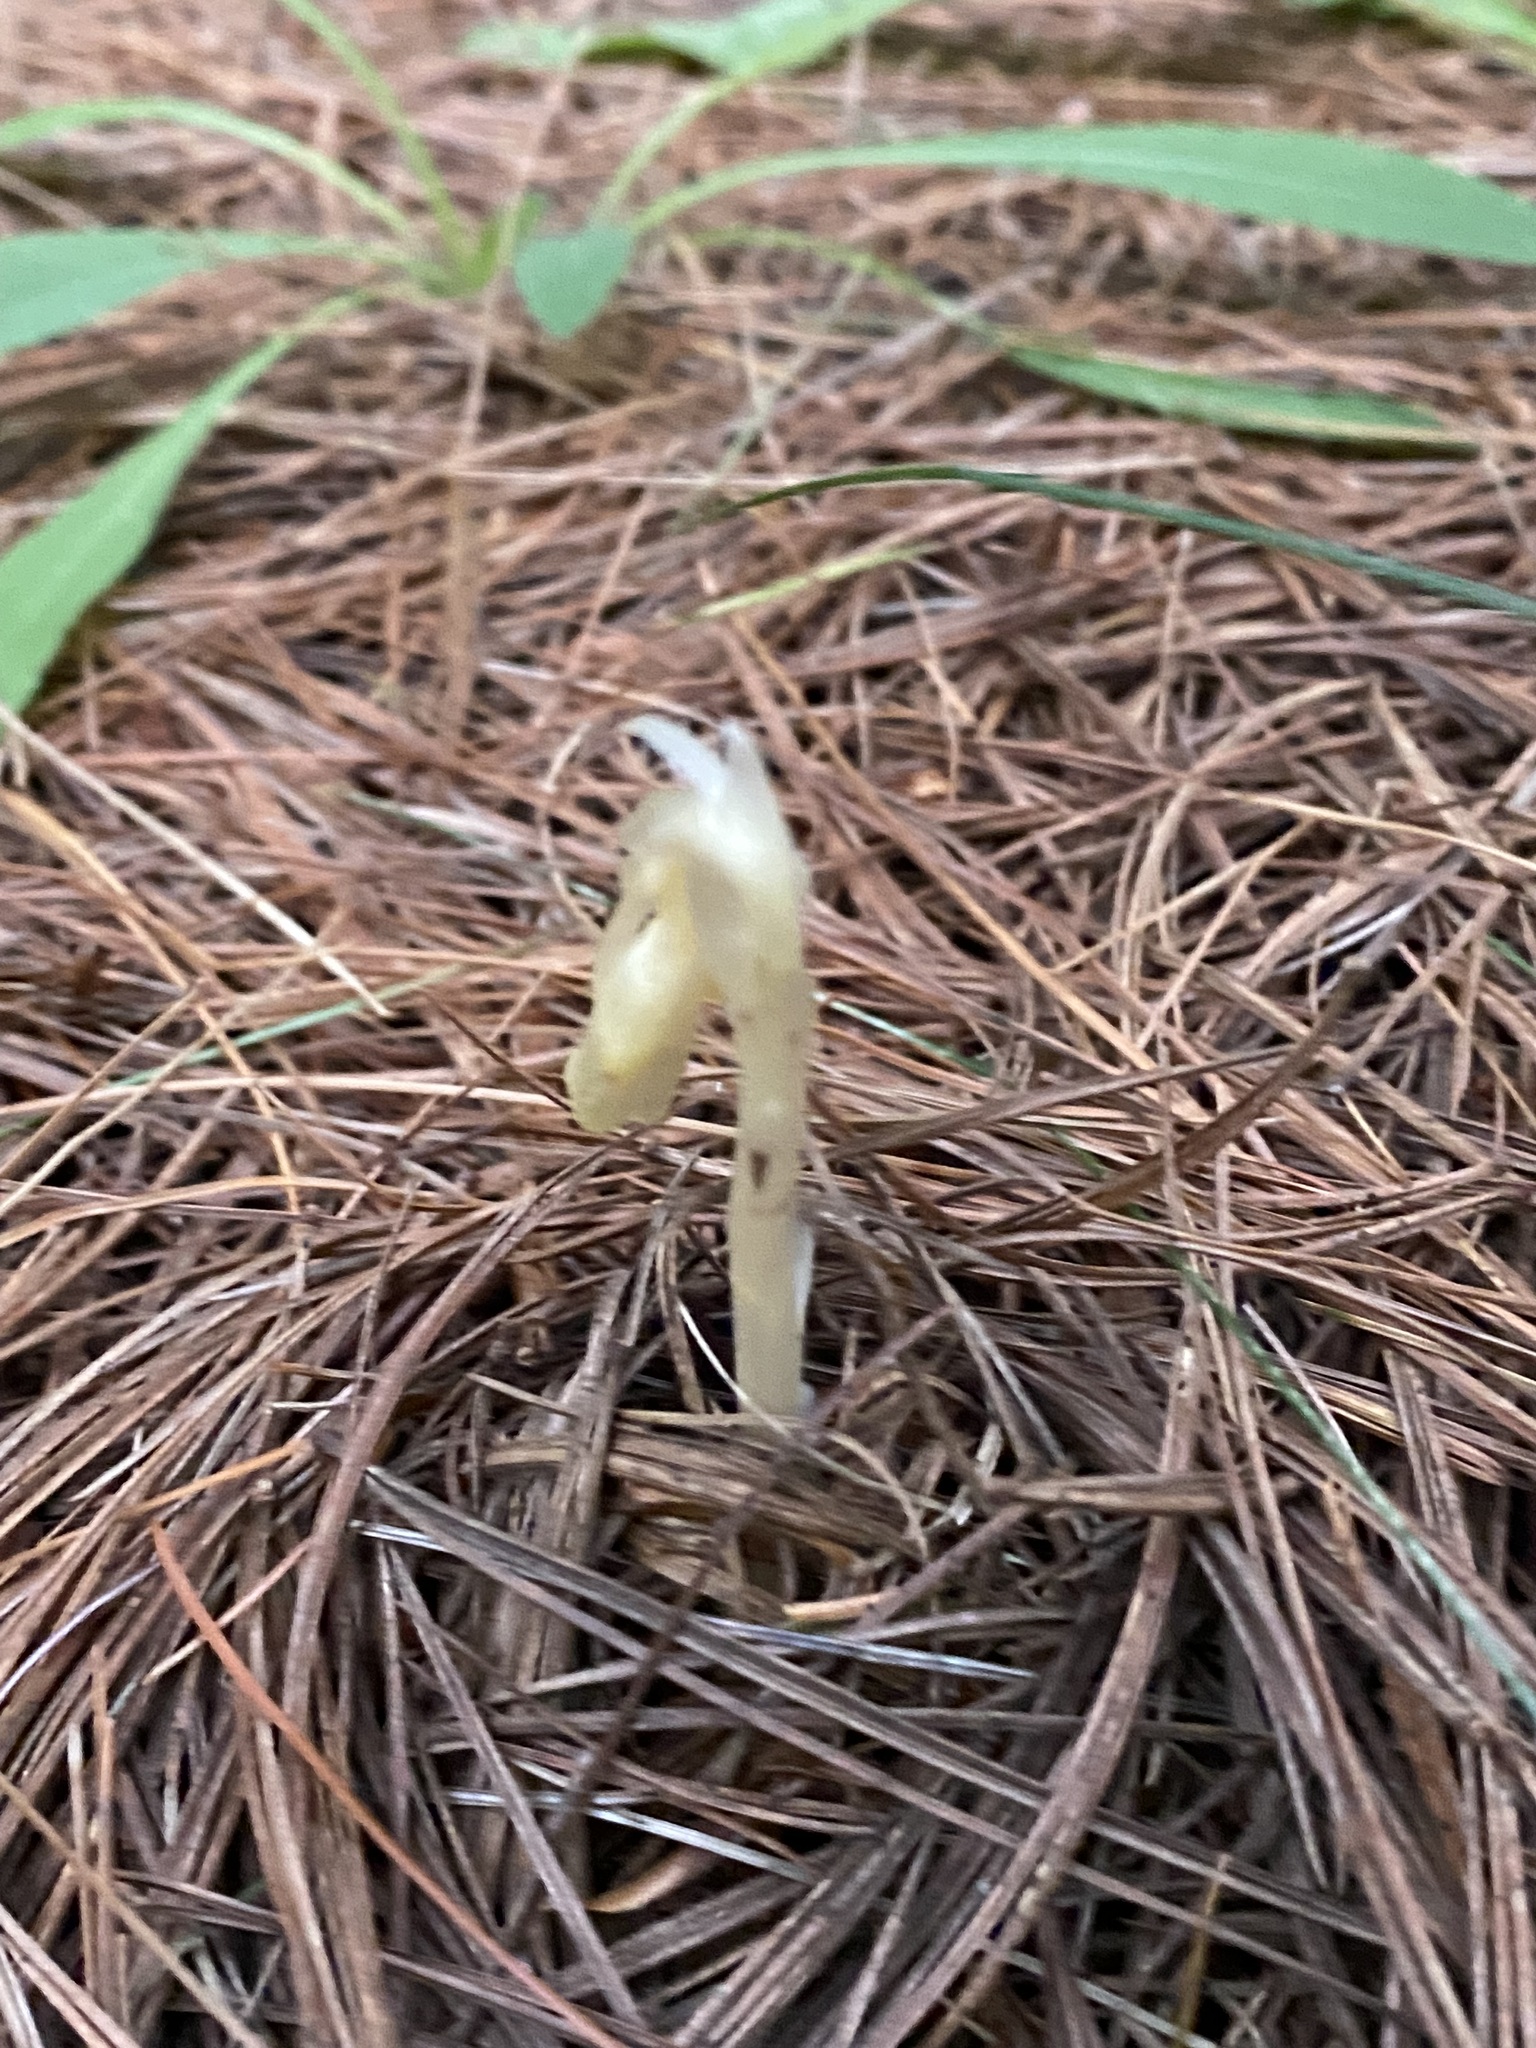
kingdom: Plantae
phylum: Tracheophyta
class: Magnoliopsida
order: Ericales
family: Ericaceae
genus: Hypopitys
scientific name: Hypopitys monotropa
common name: Yellow bird's-nest
